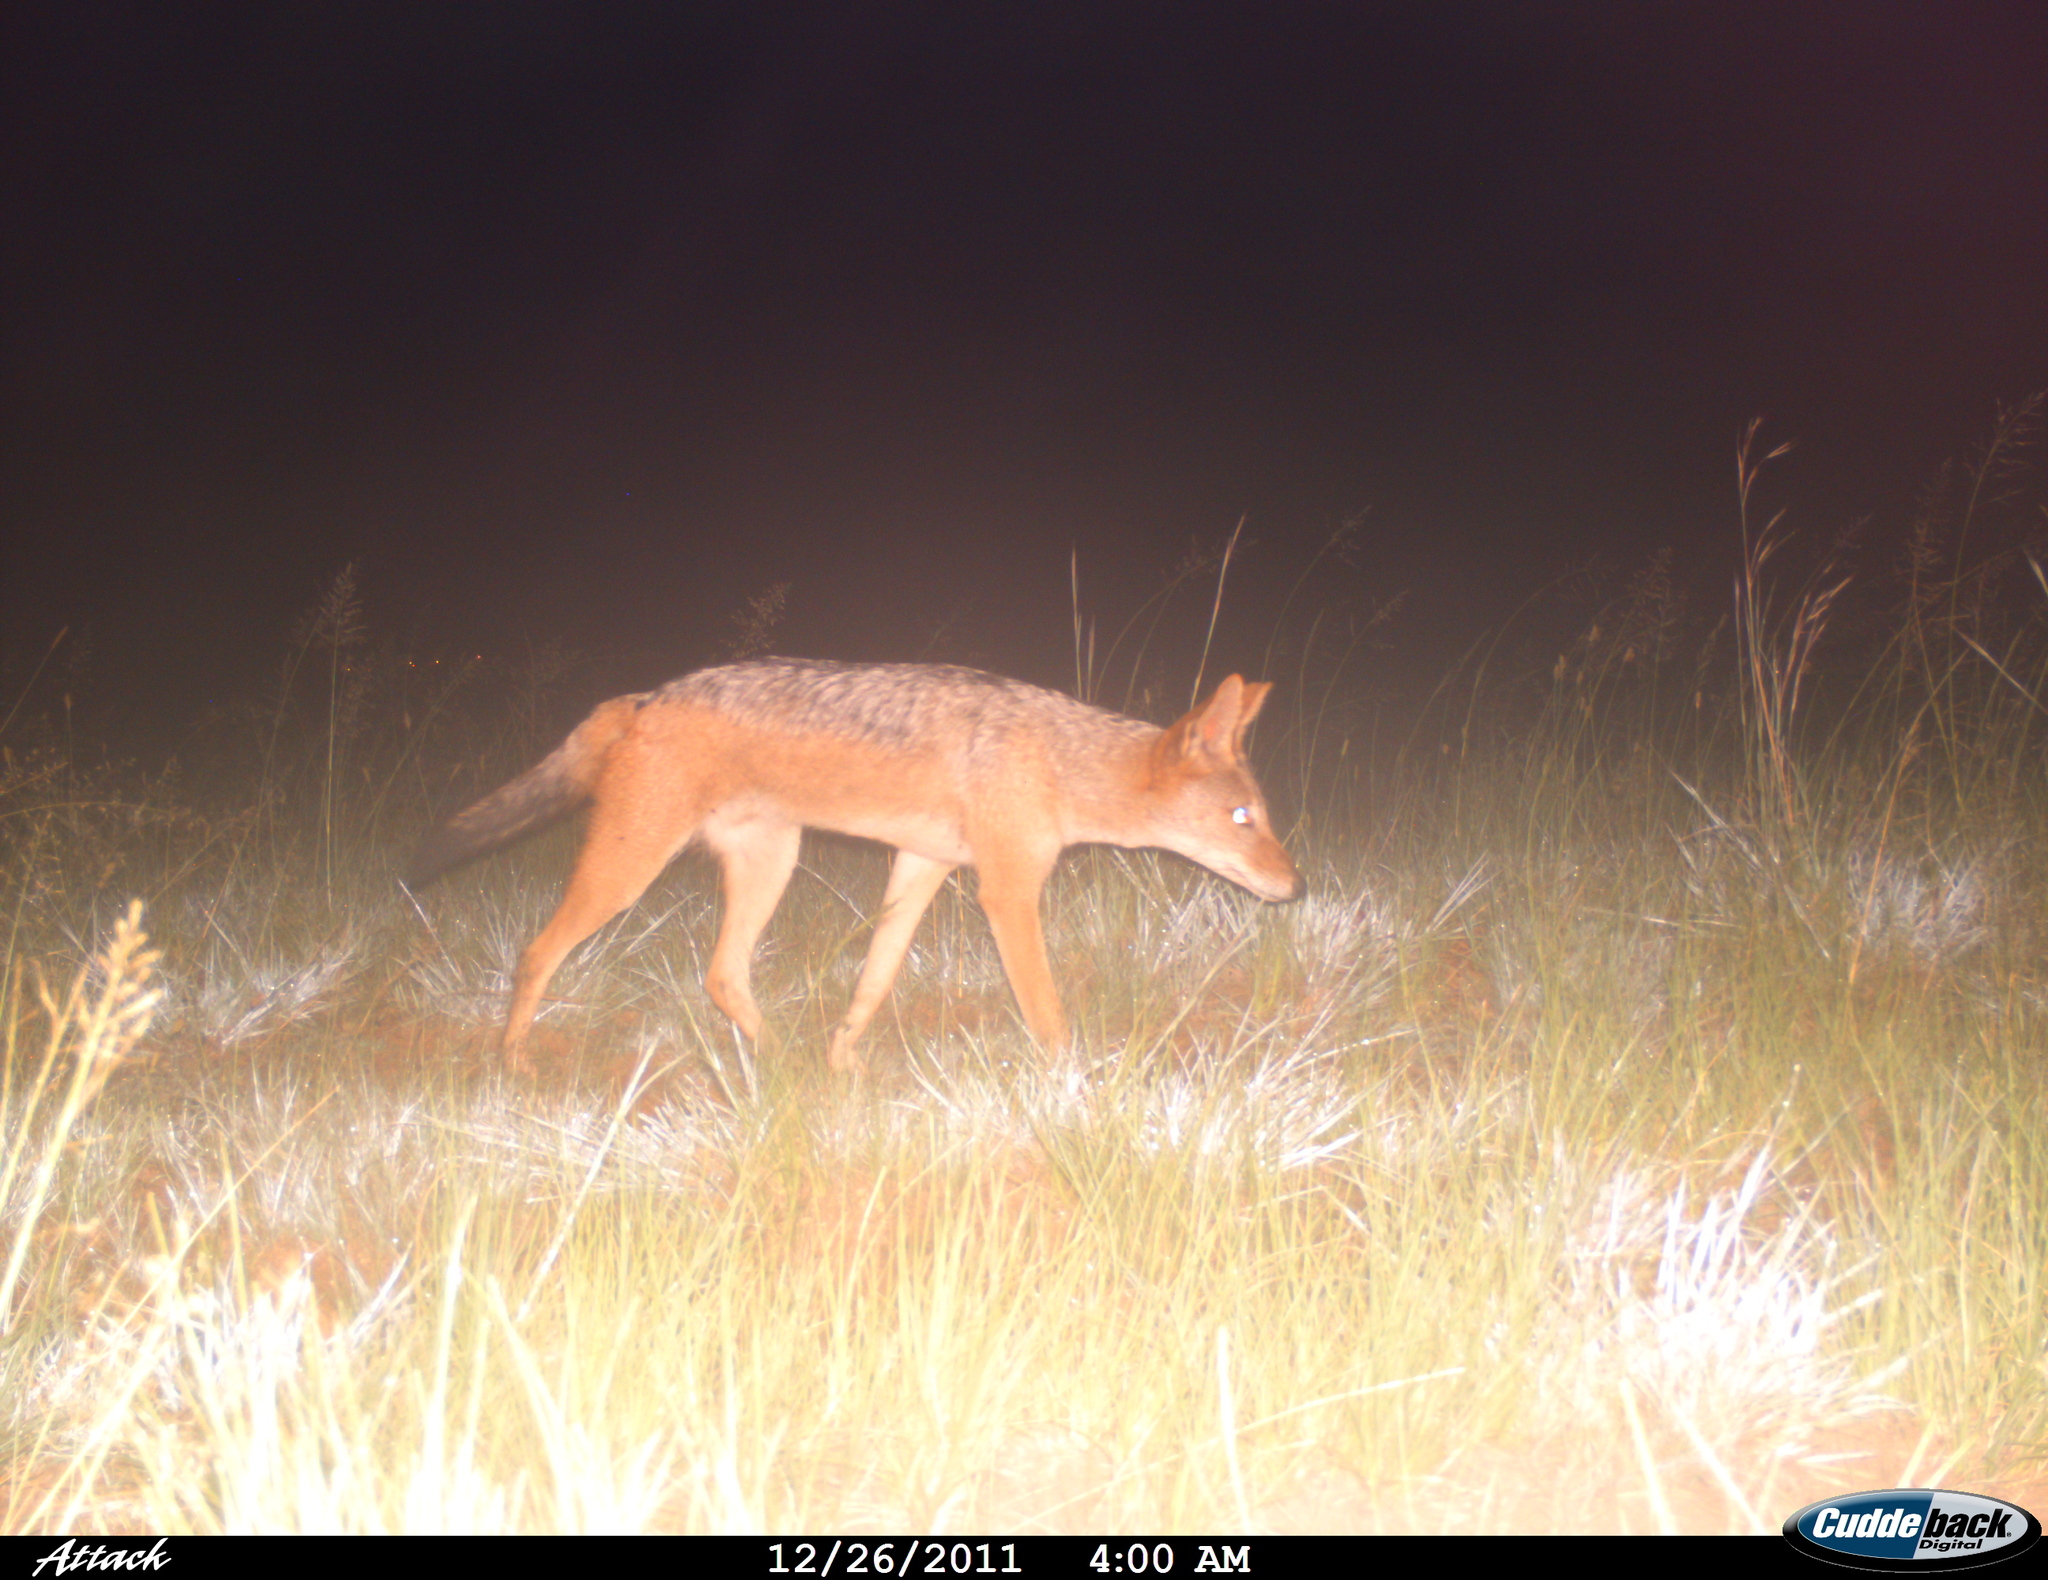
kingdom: Animalia
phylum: Chordata
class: Mammalia
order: Carnivora
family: Canidae
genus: Lupulella
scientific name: Lupulella
